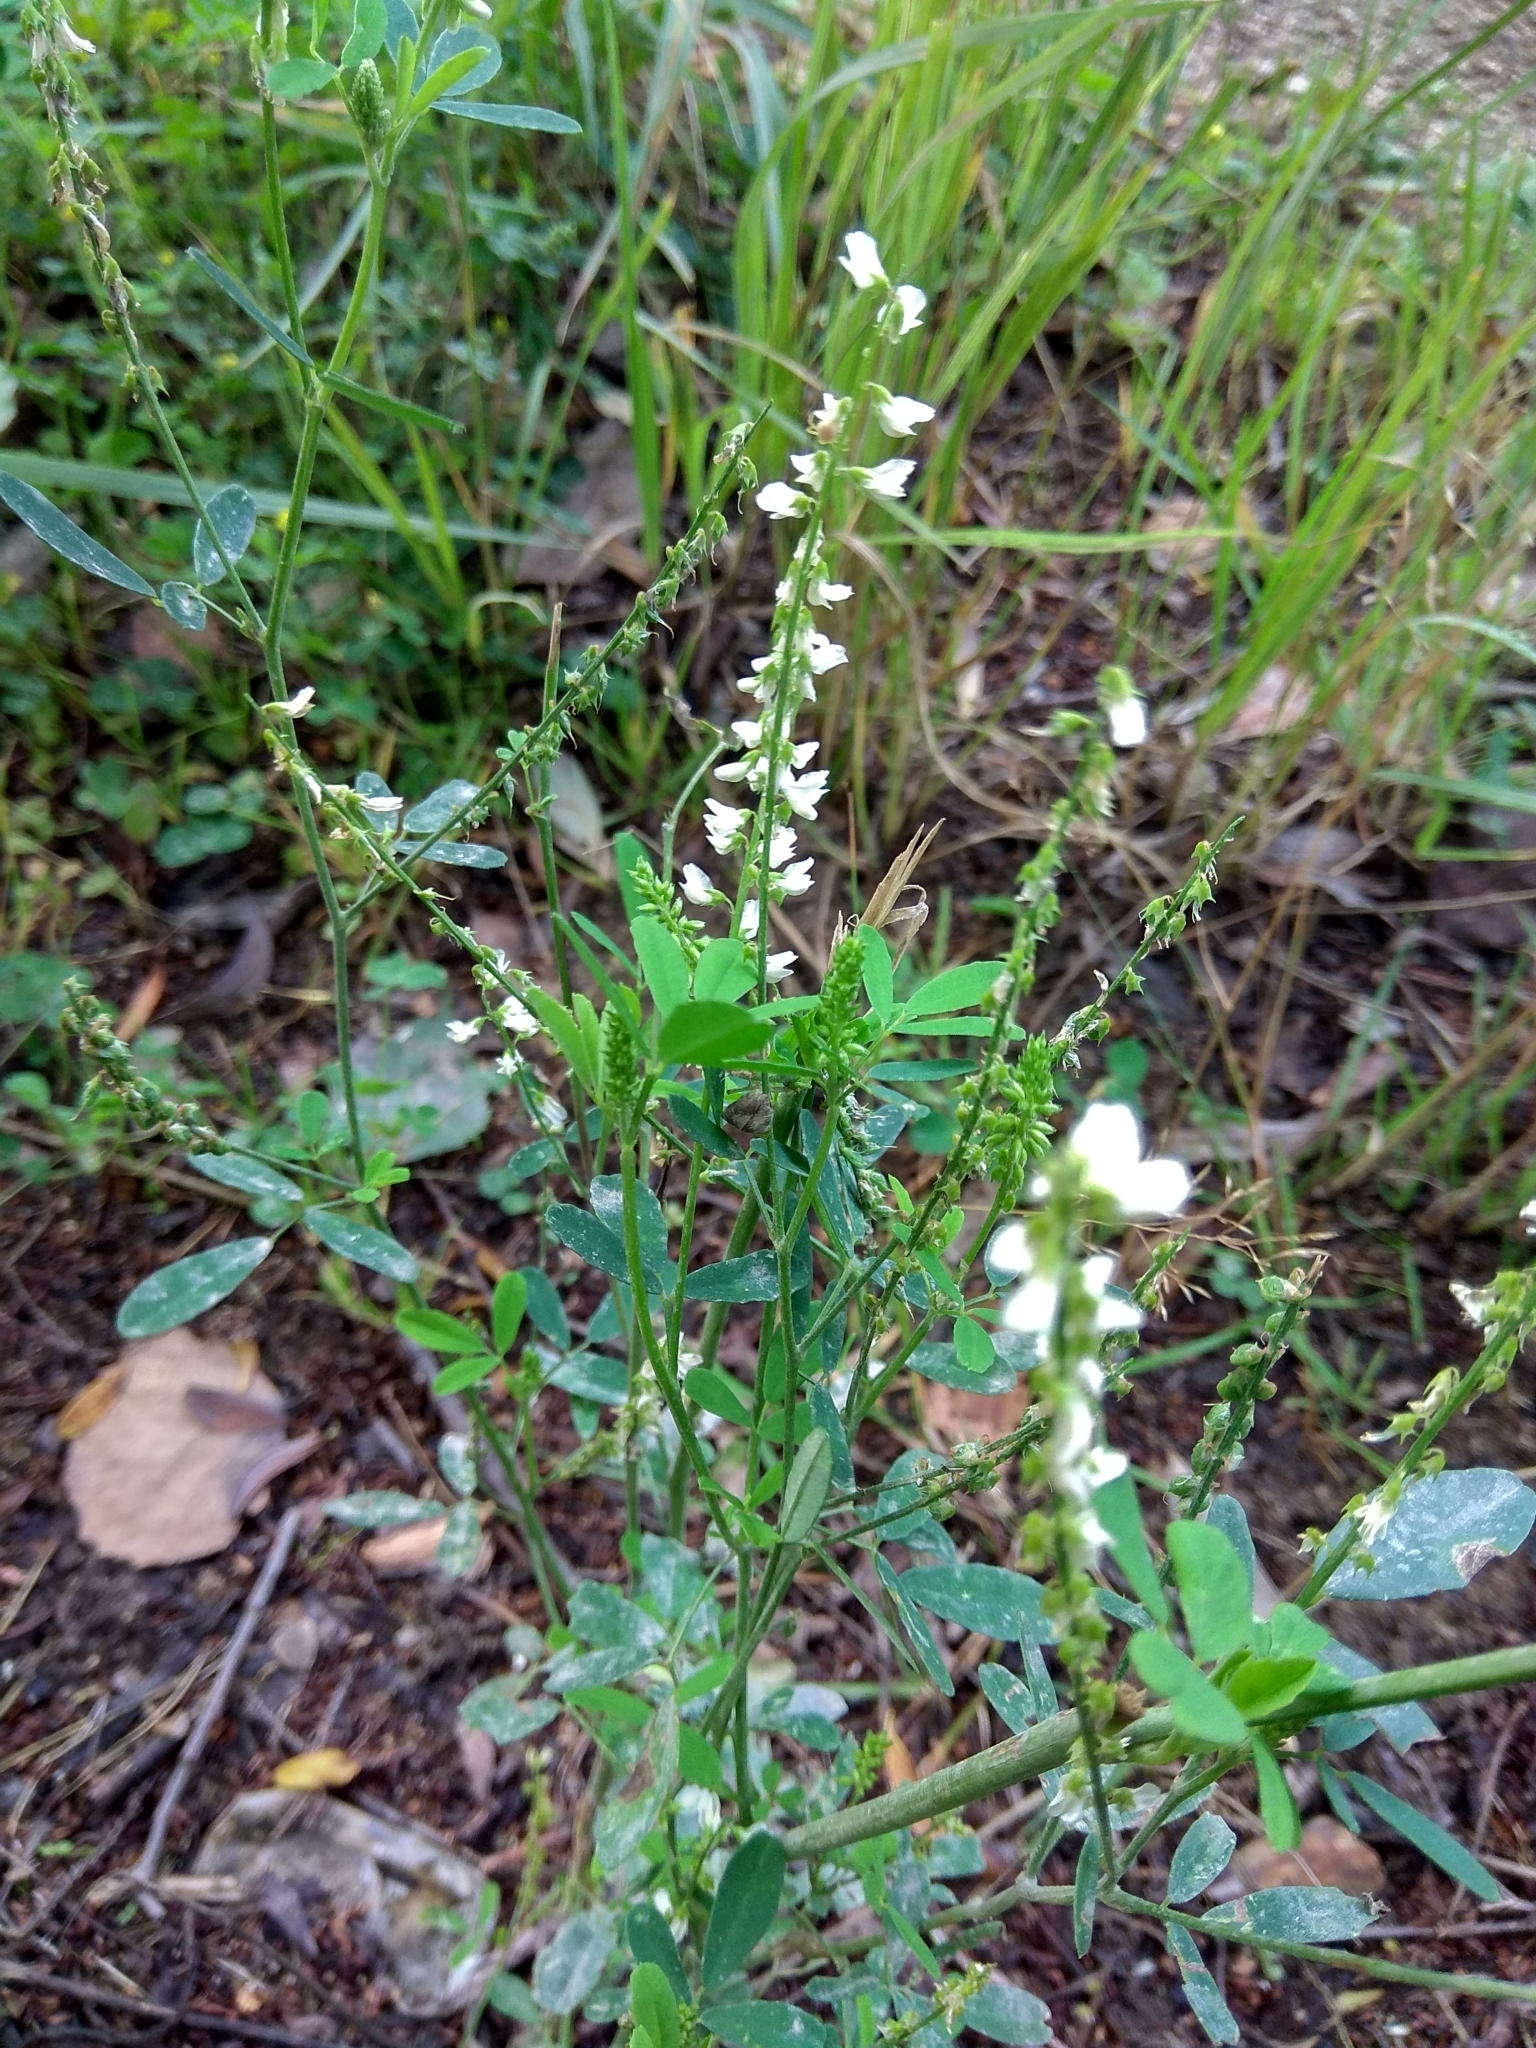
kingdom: Plantae
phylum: Tracheophyta
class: Magnoliopsida
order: Fabales
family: Fabaceae
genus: Melilotus
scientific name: Melilotus albus
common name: White melilot
